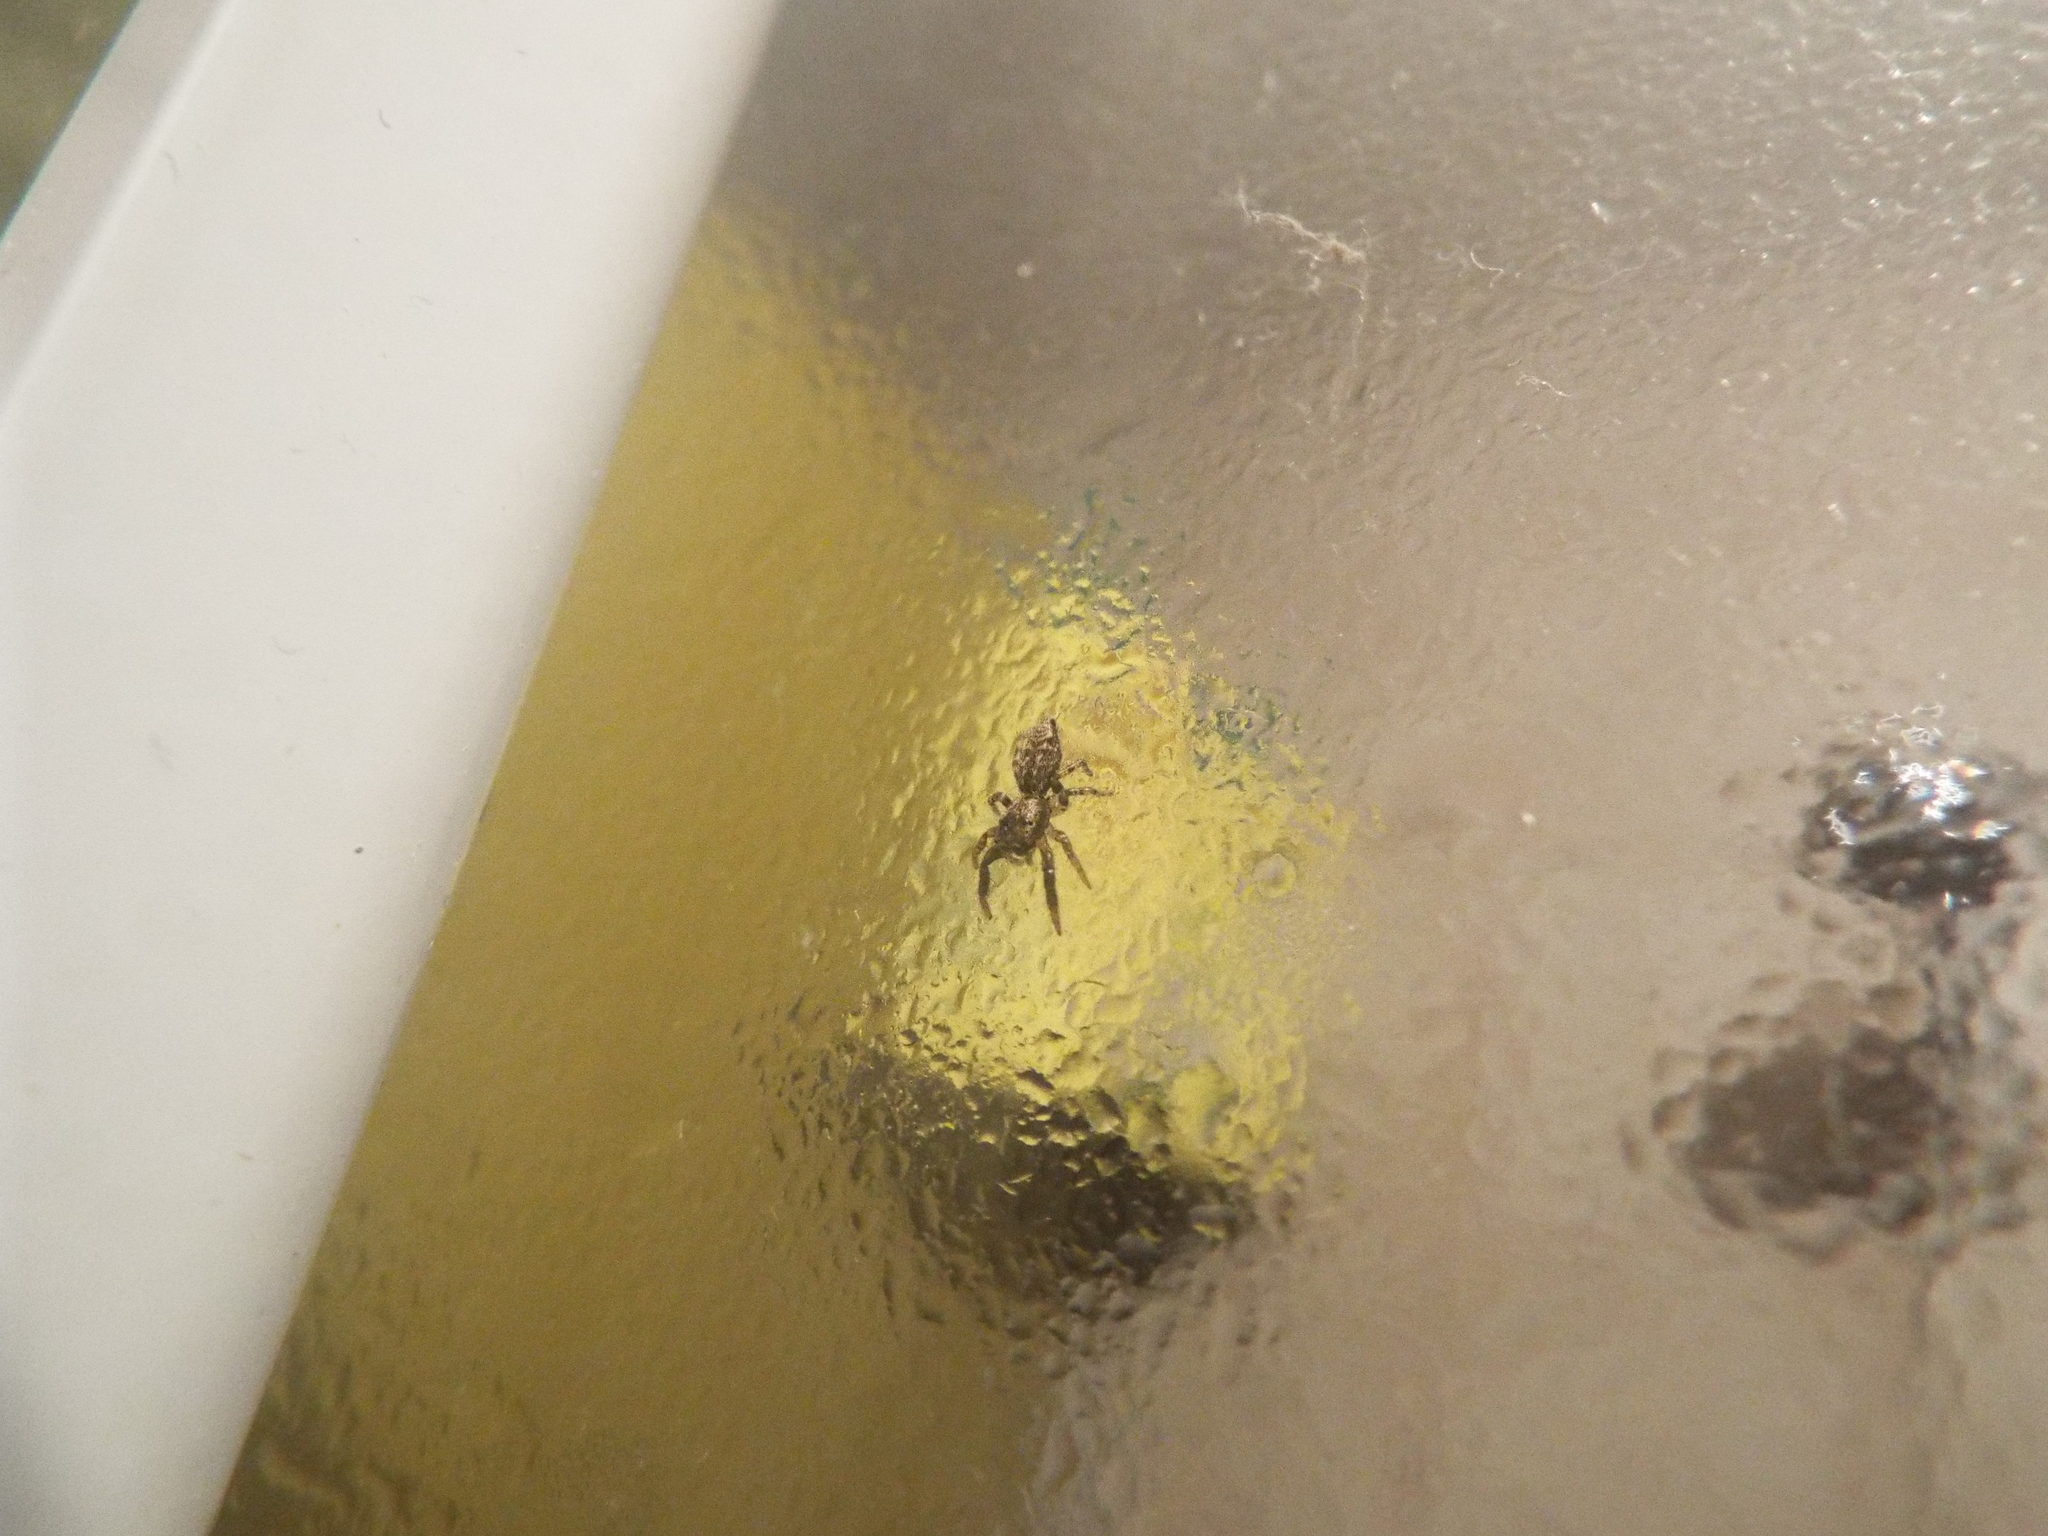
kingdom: Animalia
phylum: Arthropoda
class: Arachnida
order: Araneae
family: Salticidae
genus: Marpissa
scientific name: Marpissa muscosa
